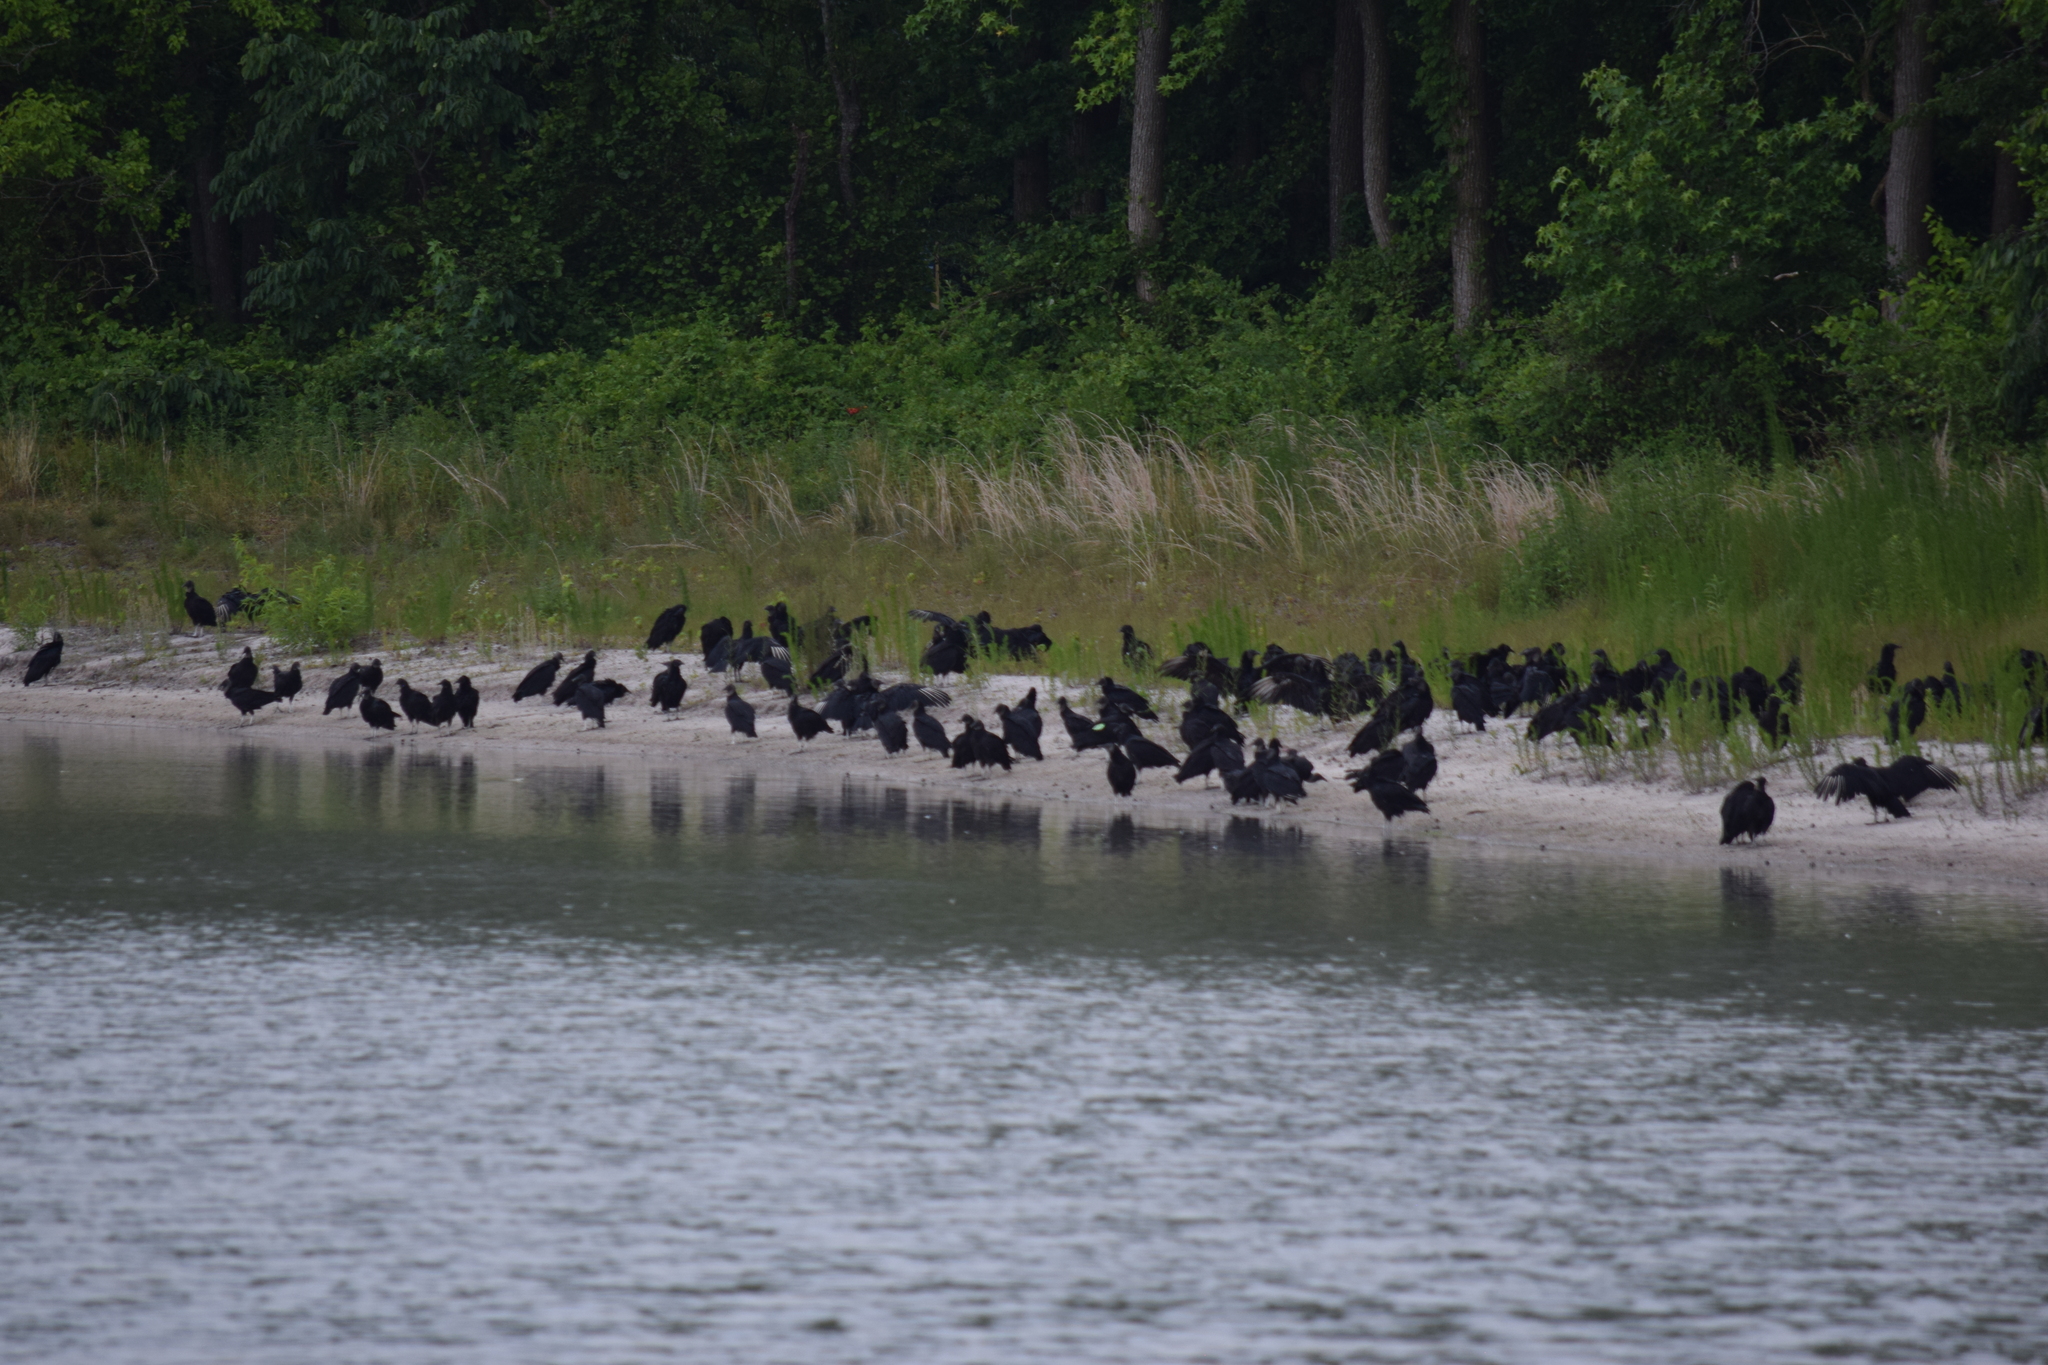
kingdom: Animalia
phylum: Chordata
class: Aves
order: Accipitriformes
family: Cathartidae
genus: Coragyps
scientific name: Coragyps atratus
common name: Black vulture
